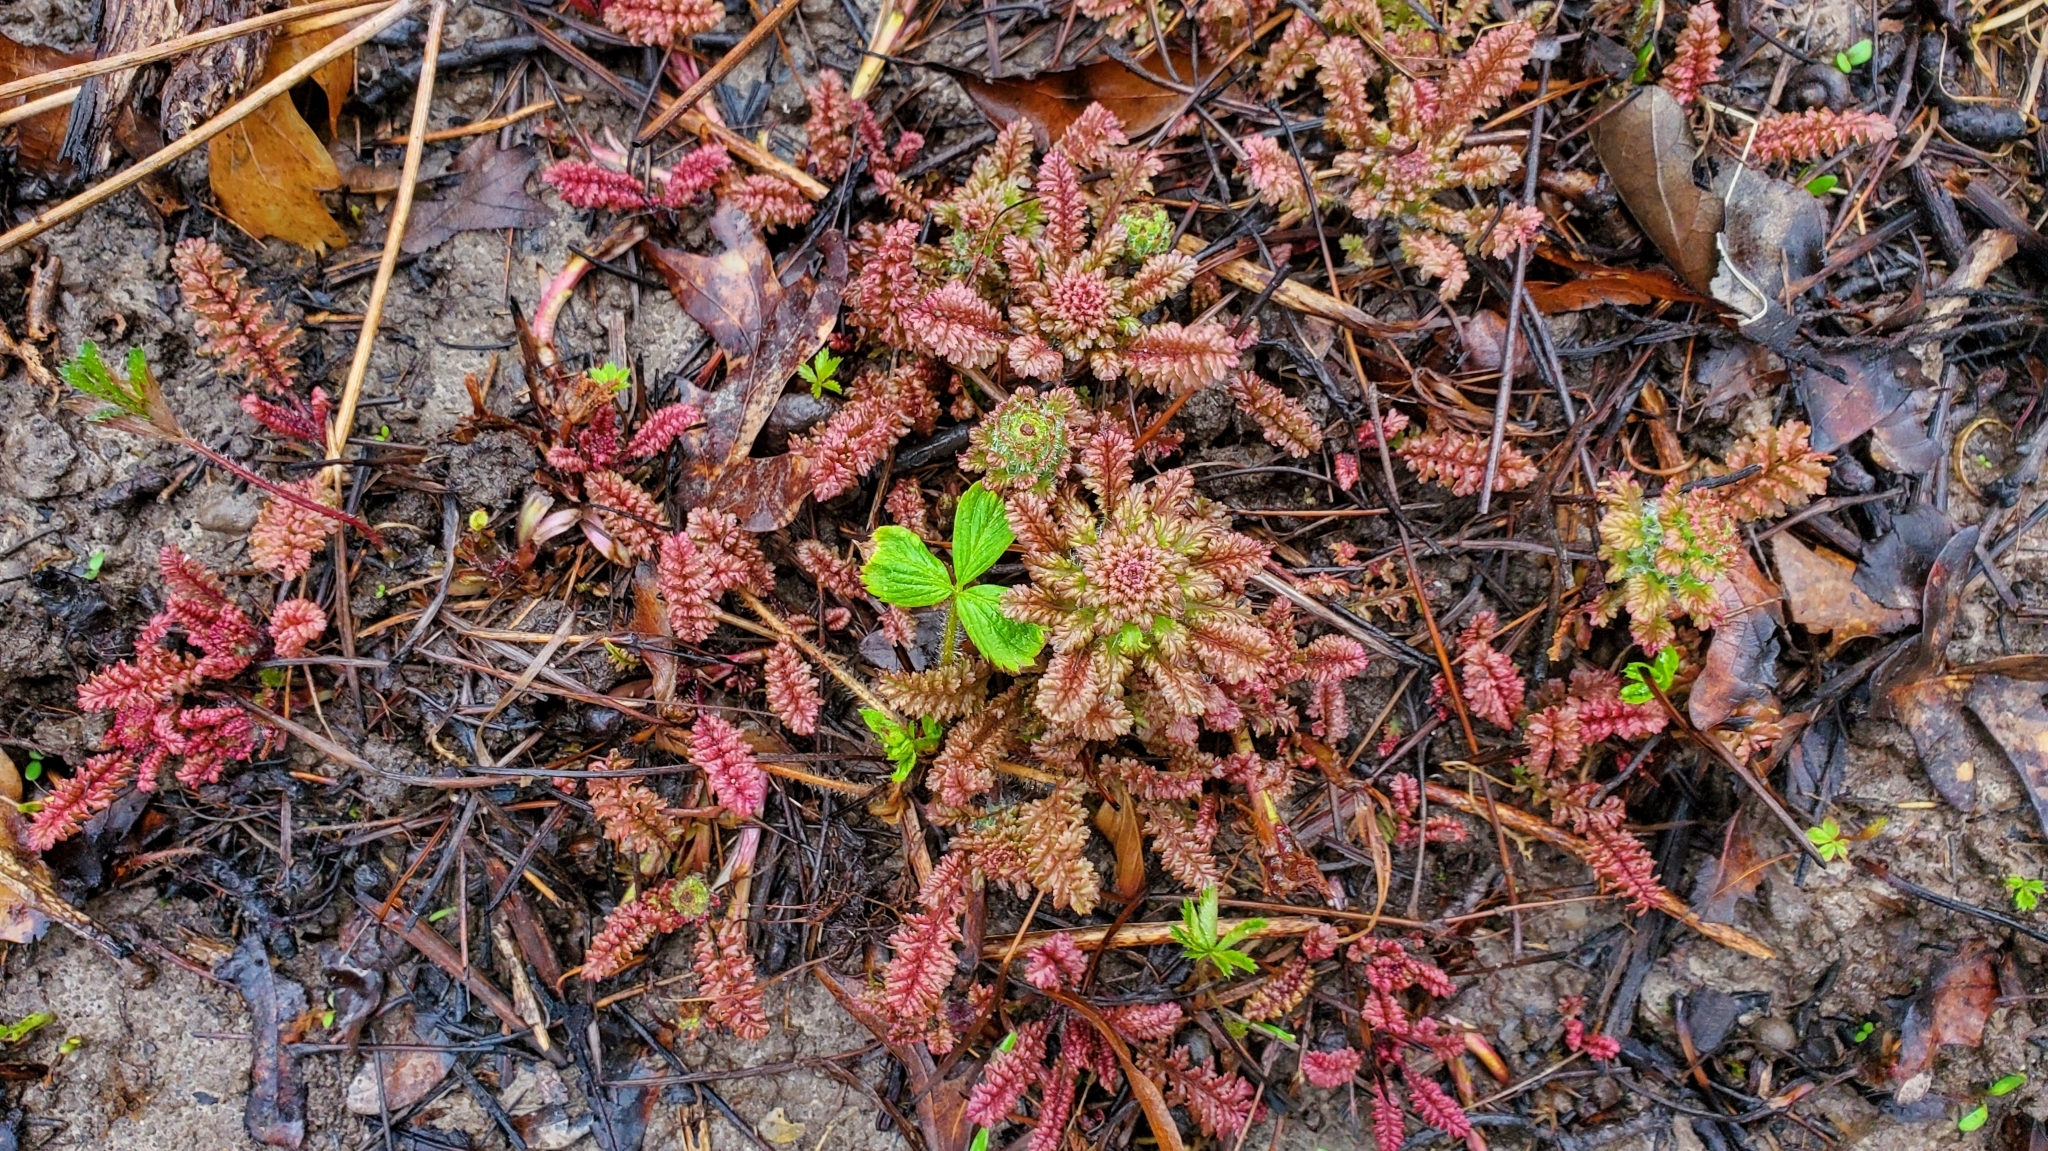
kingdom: Plantae
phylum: Tracheophyta
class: Magnoliopsida
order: Lamiales
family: Orobanchaceae
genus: Pedicularis
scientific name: Pedicularis canadensis
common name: Early lousewort
